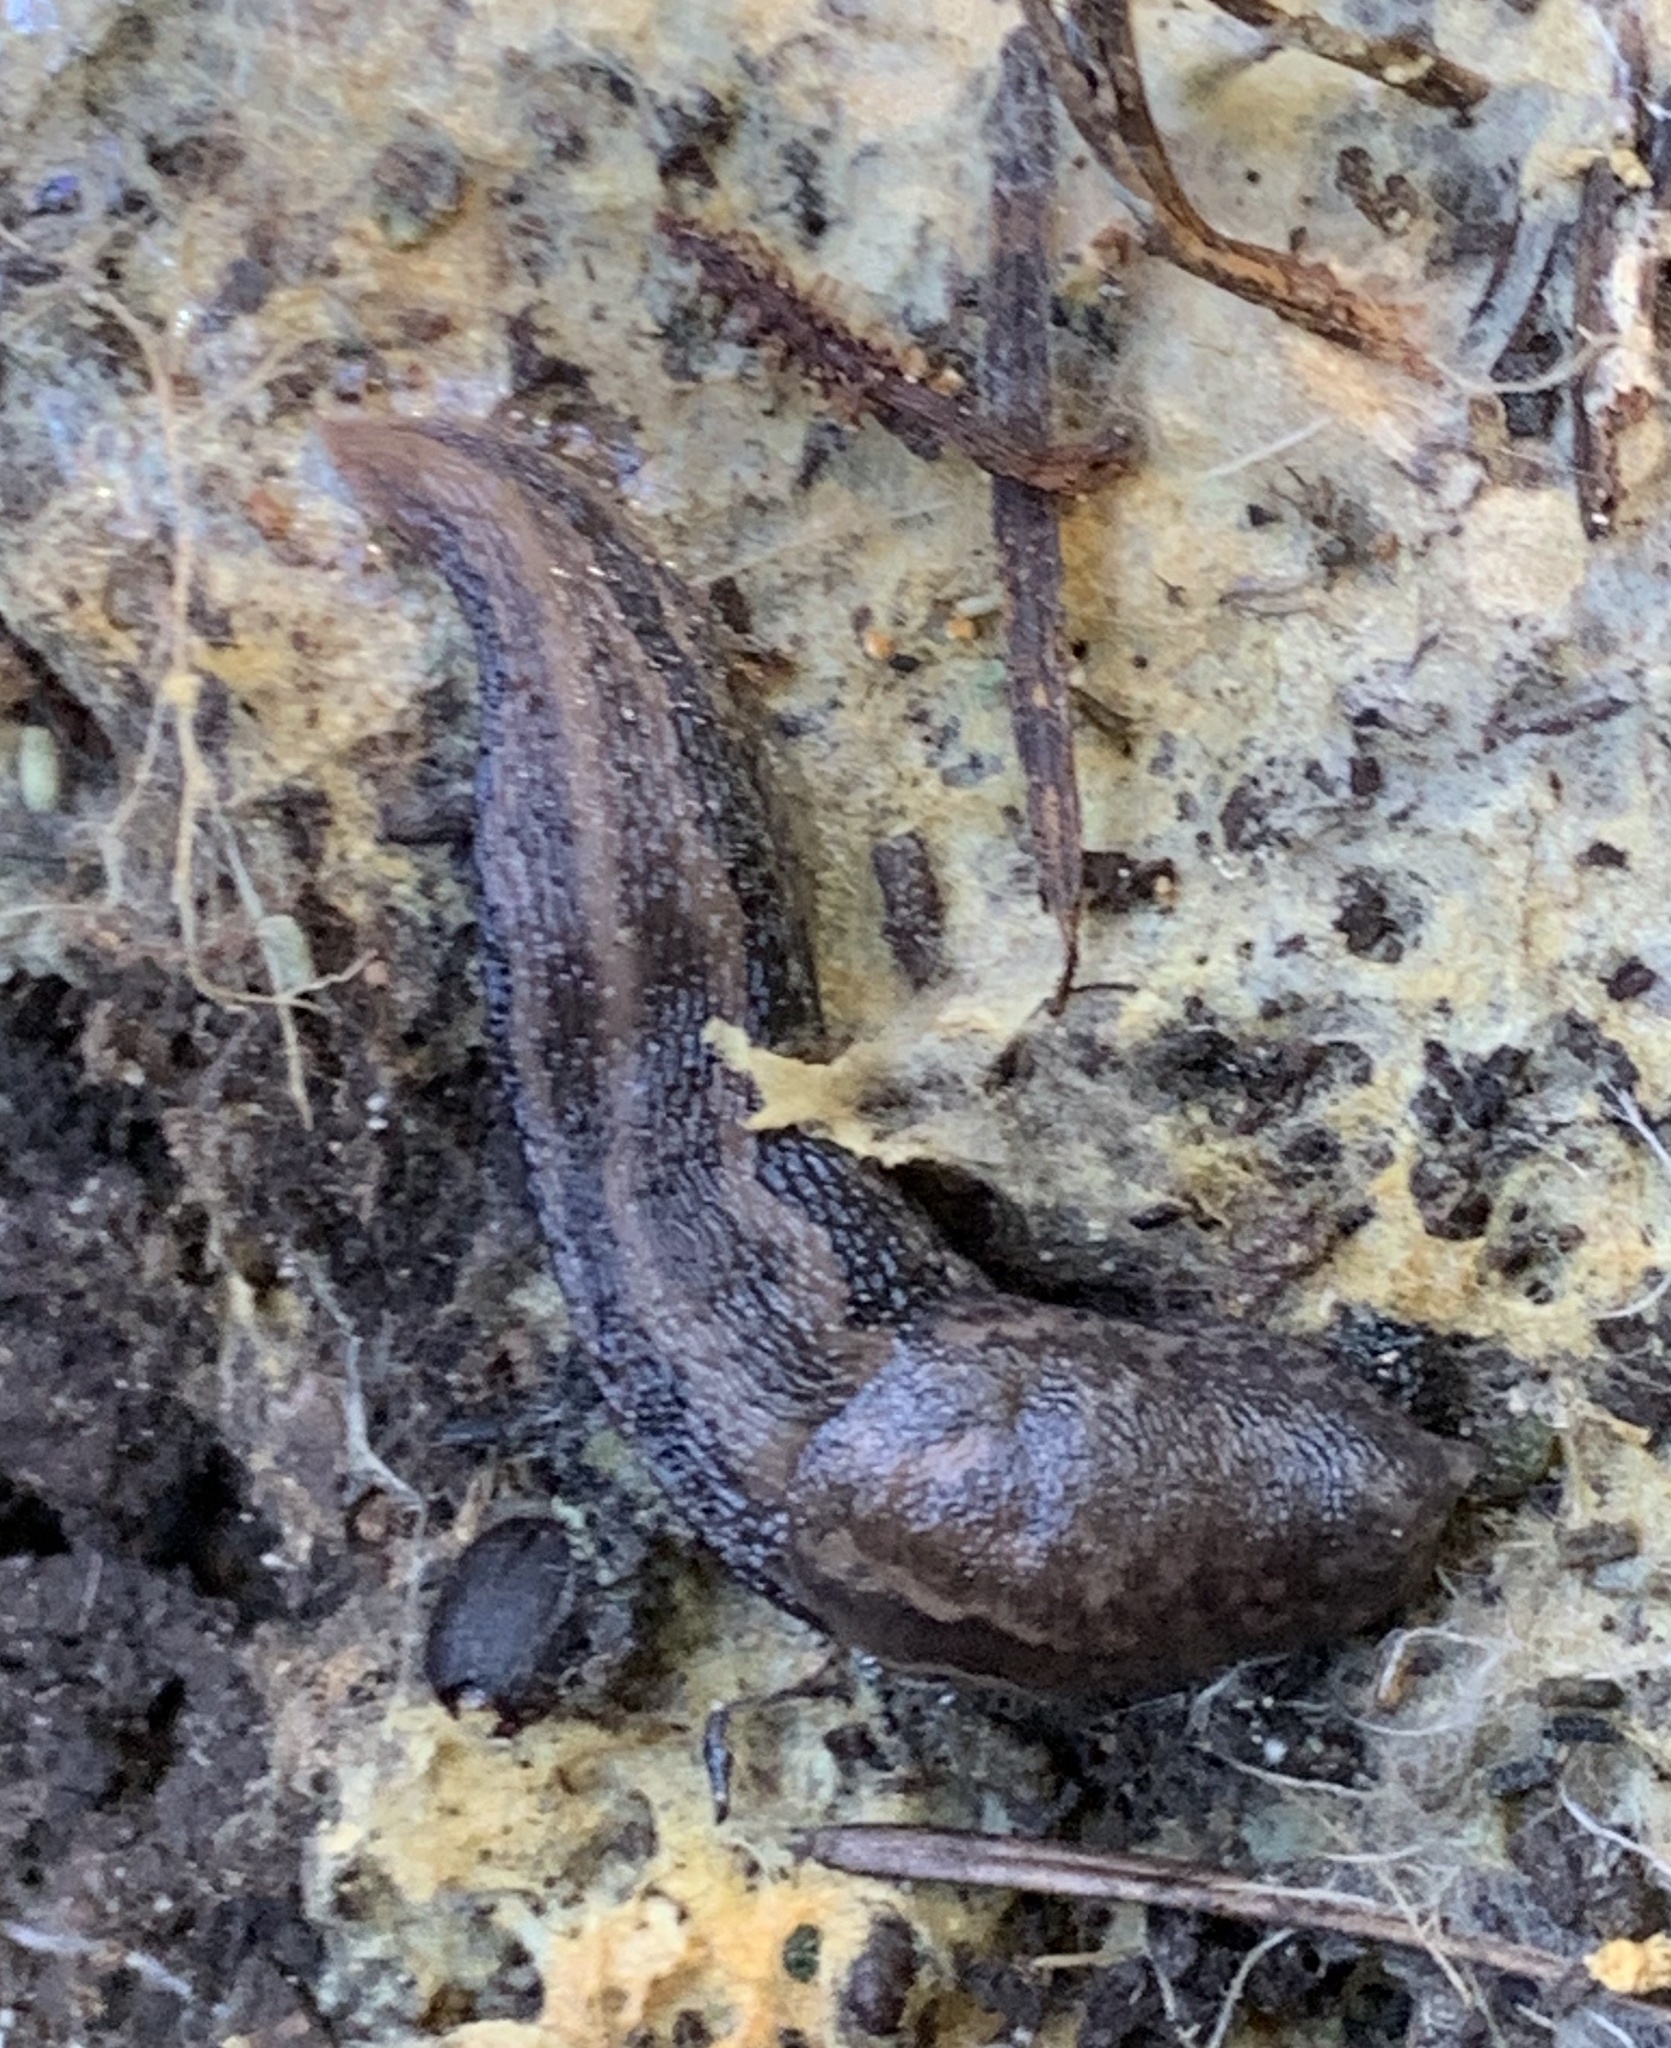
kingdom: Animalia
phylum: Mollusca
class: Gastropoda
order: Stylommatophora
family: Limacidae
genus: Limax
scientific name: Limax maximus
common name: Great grey slug
